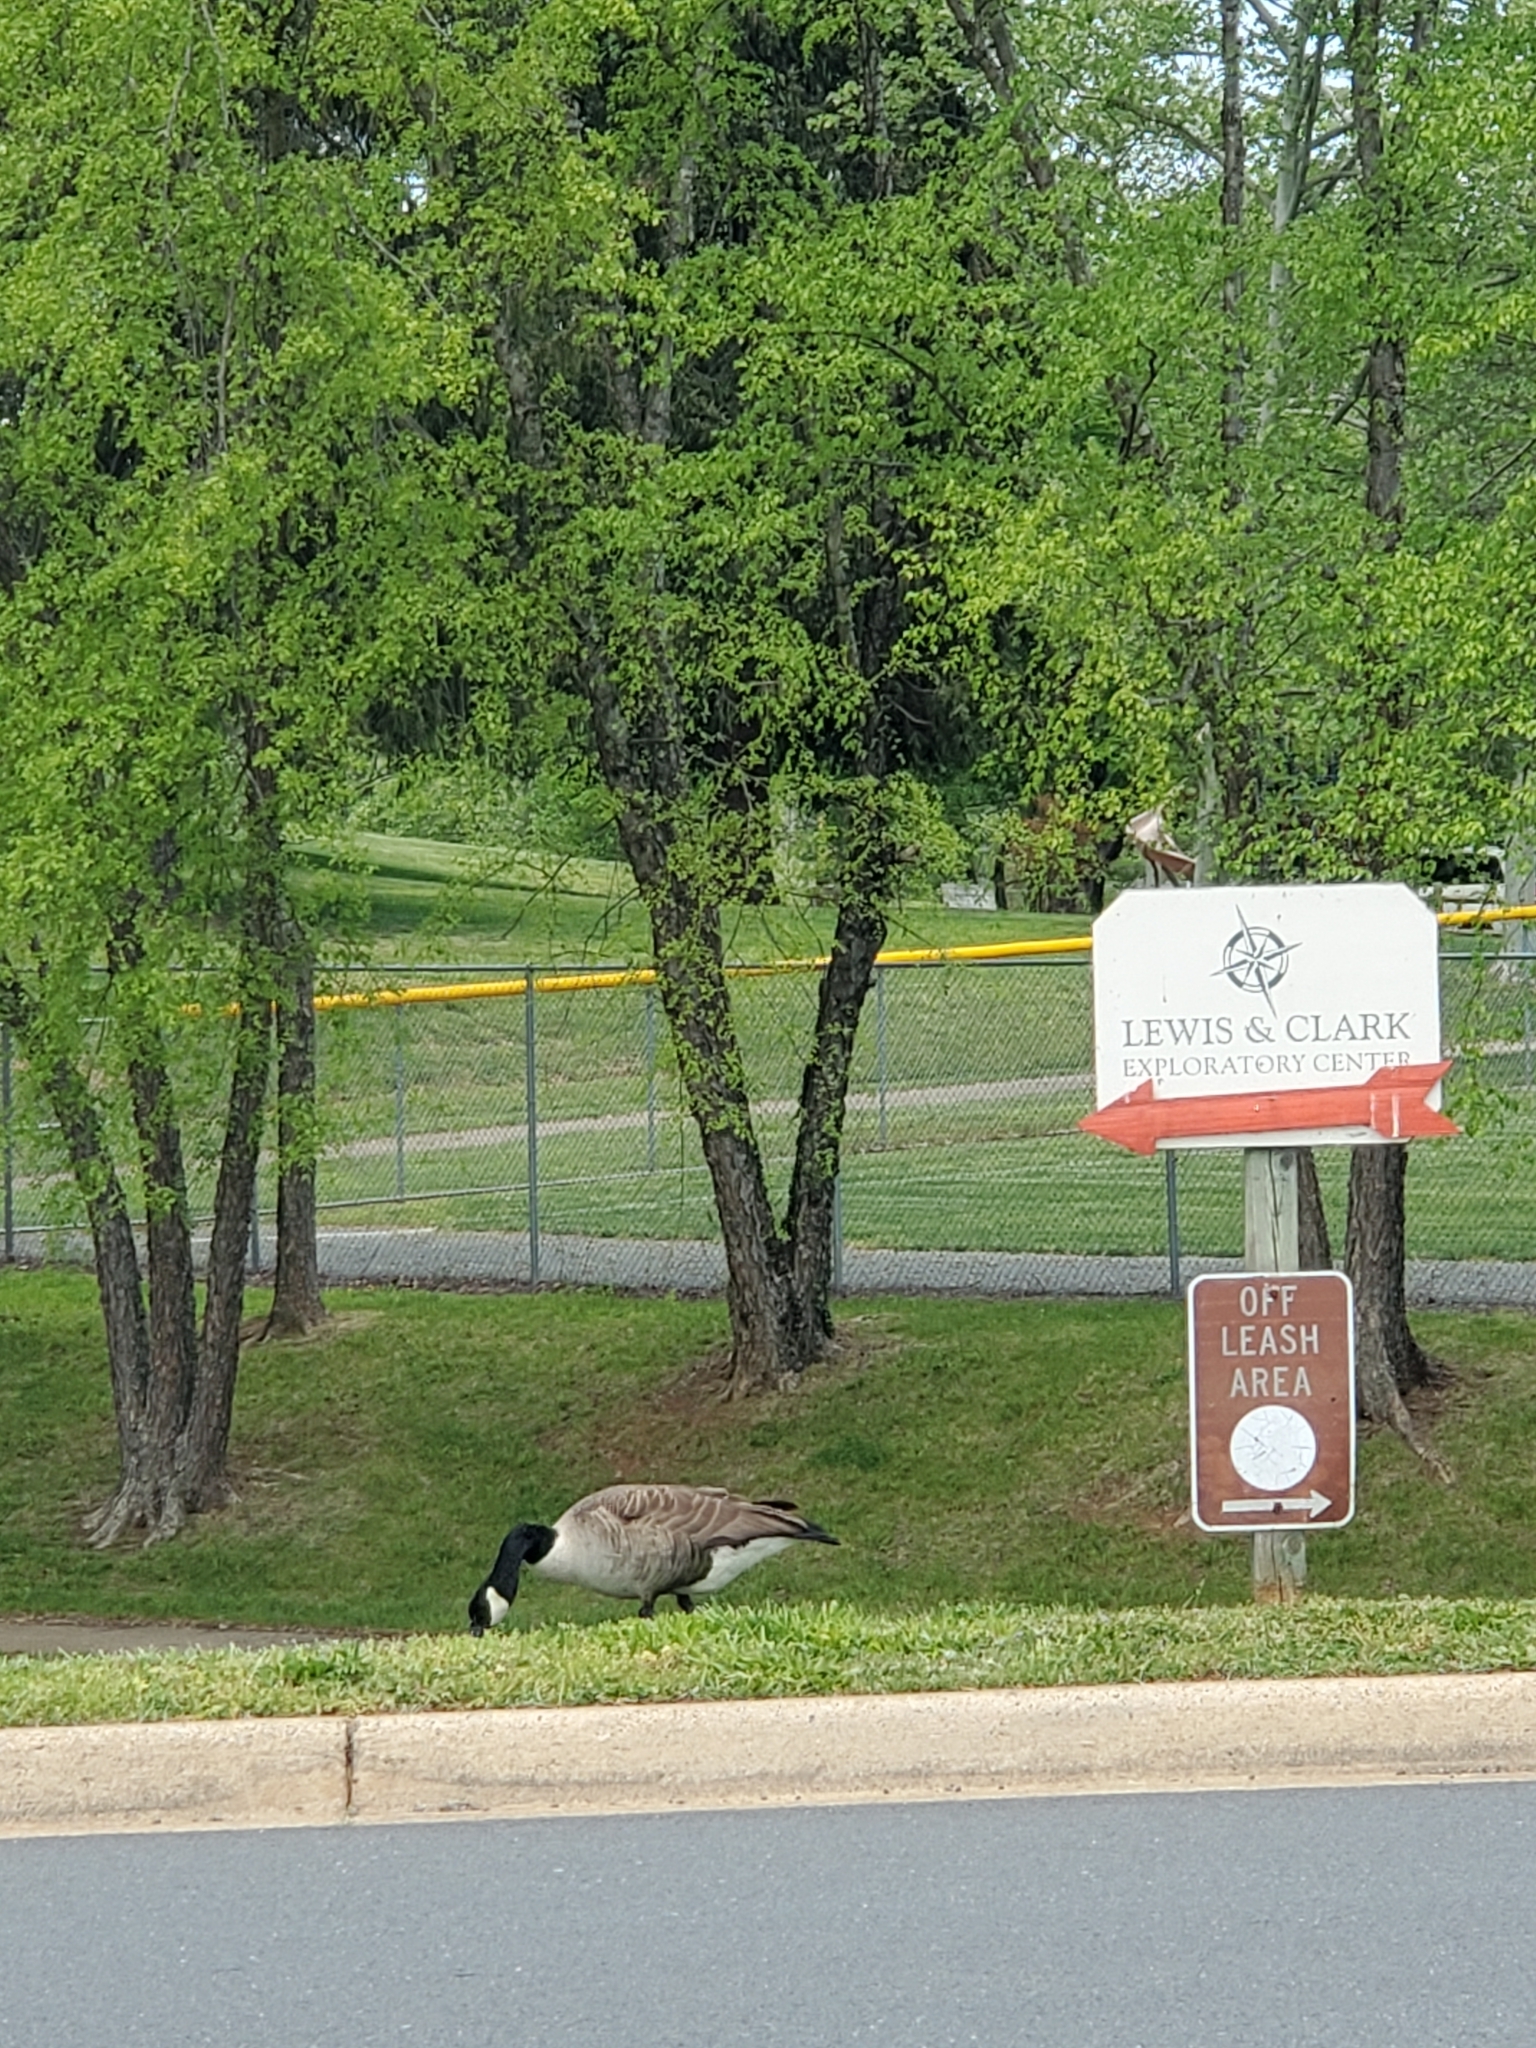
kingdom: Animalia
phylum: Chordata
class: Aves
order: Anseriformes
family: Anatidae
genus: Branta
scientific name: Branta canadensis
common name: Canada goose
